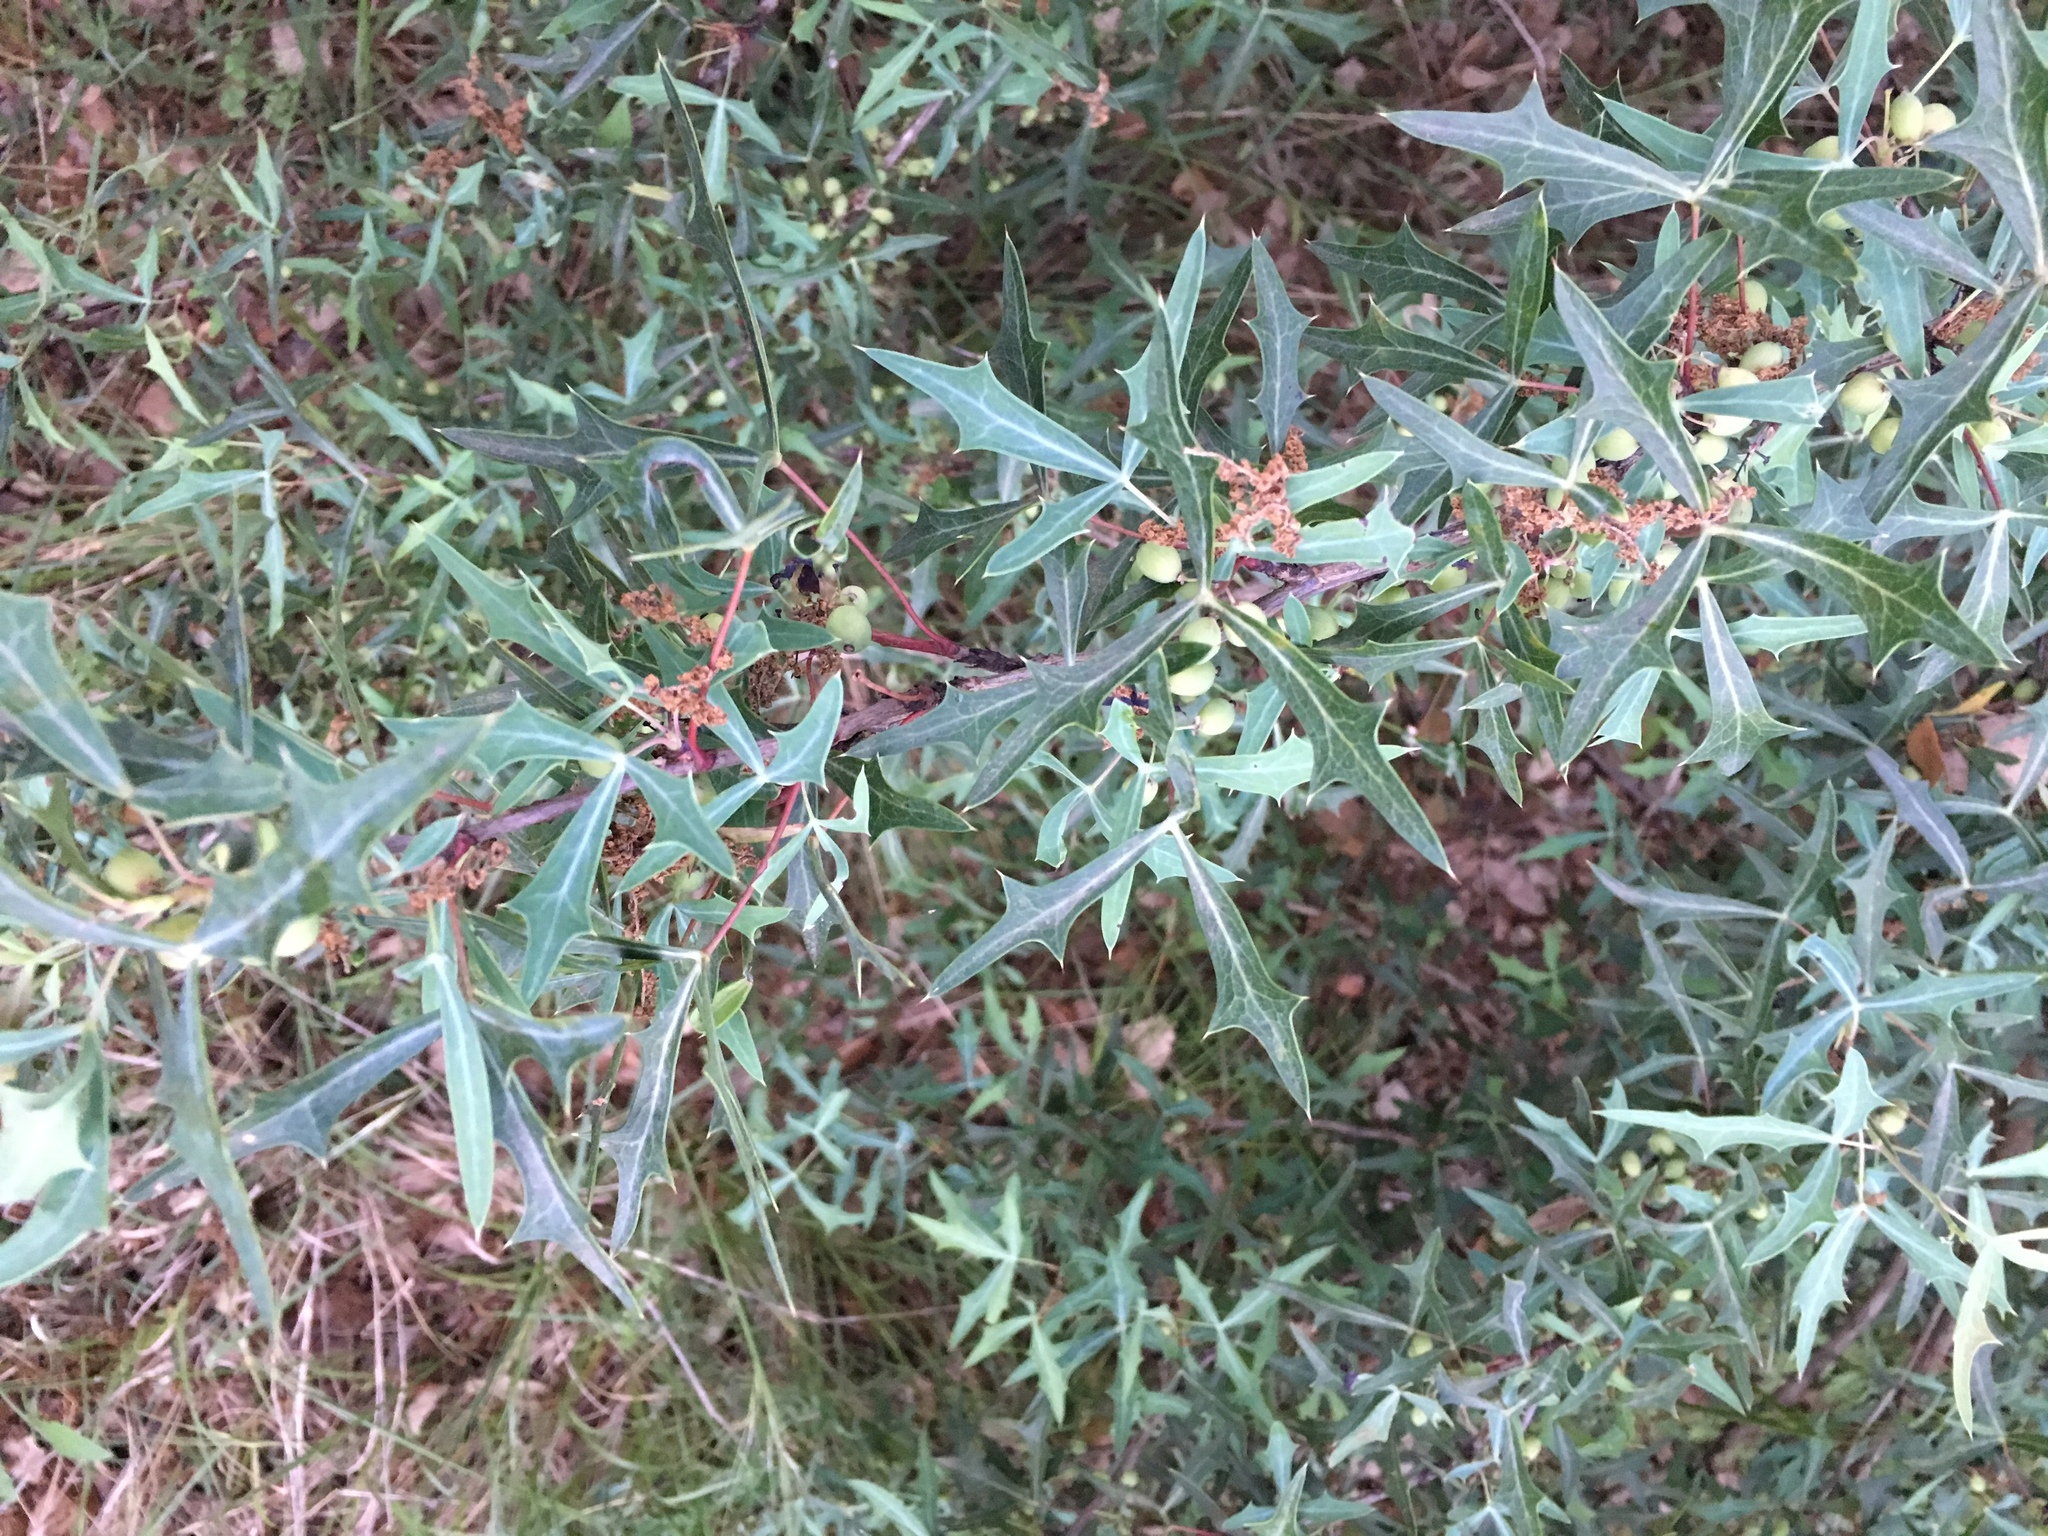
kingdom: Plantae
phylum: Tracheophyta
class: Magnoliopsida
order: Ranunculales
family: Berberidaceae
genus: Alloberberis
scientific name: Alloberberis trifoliolata
